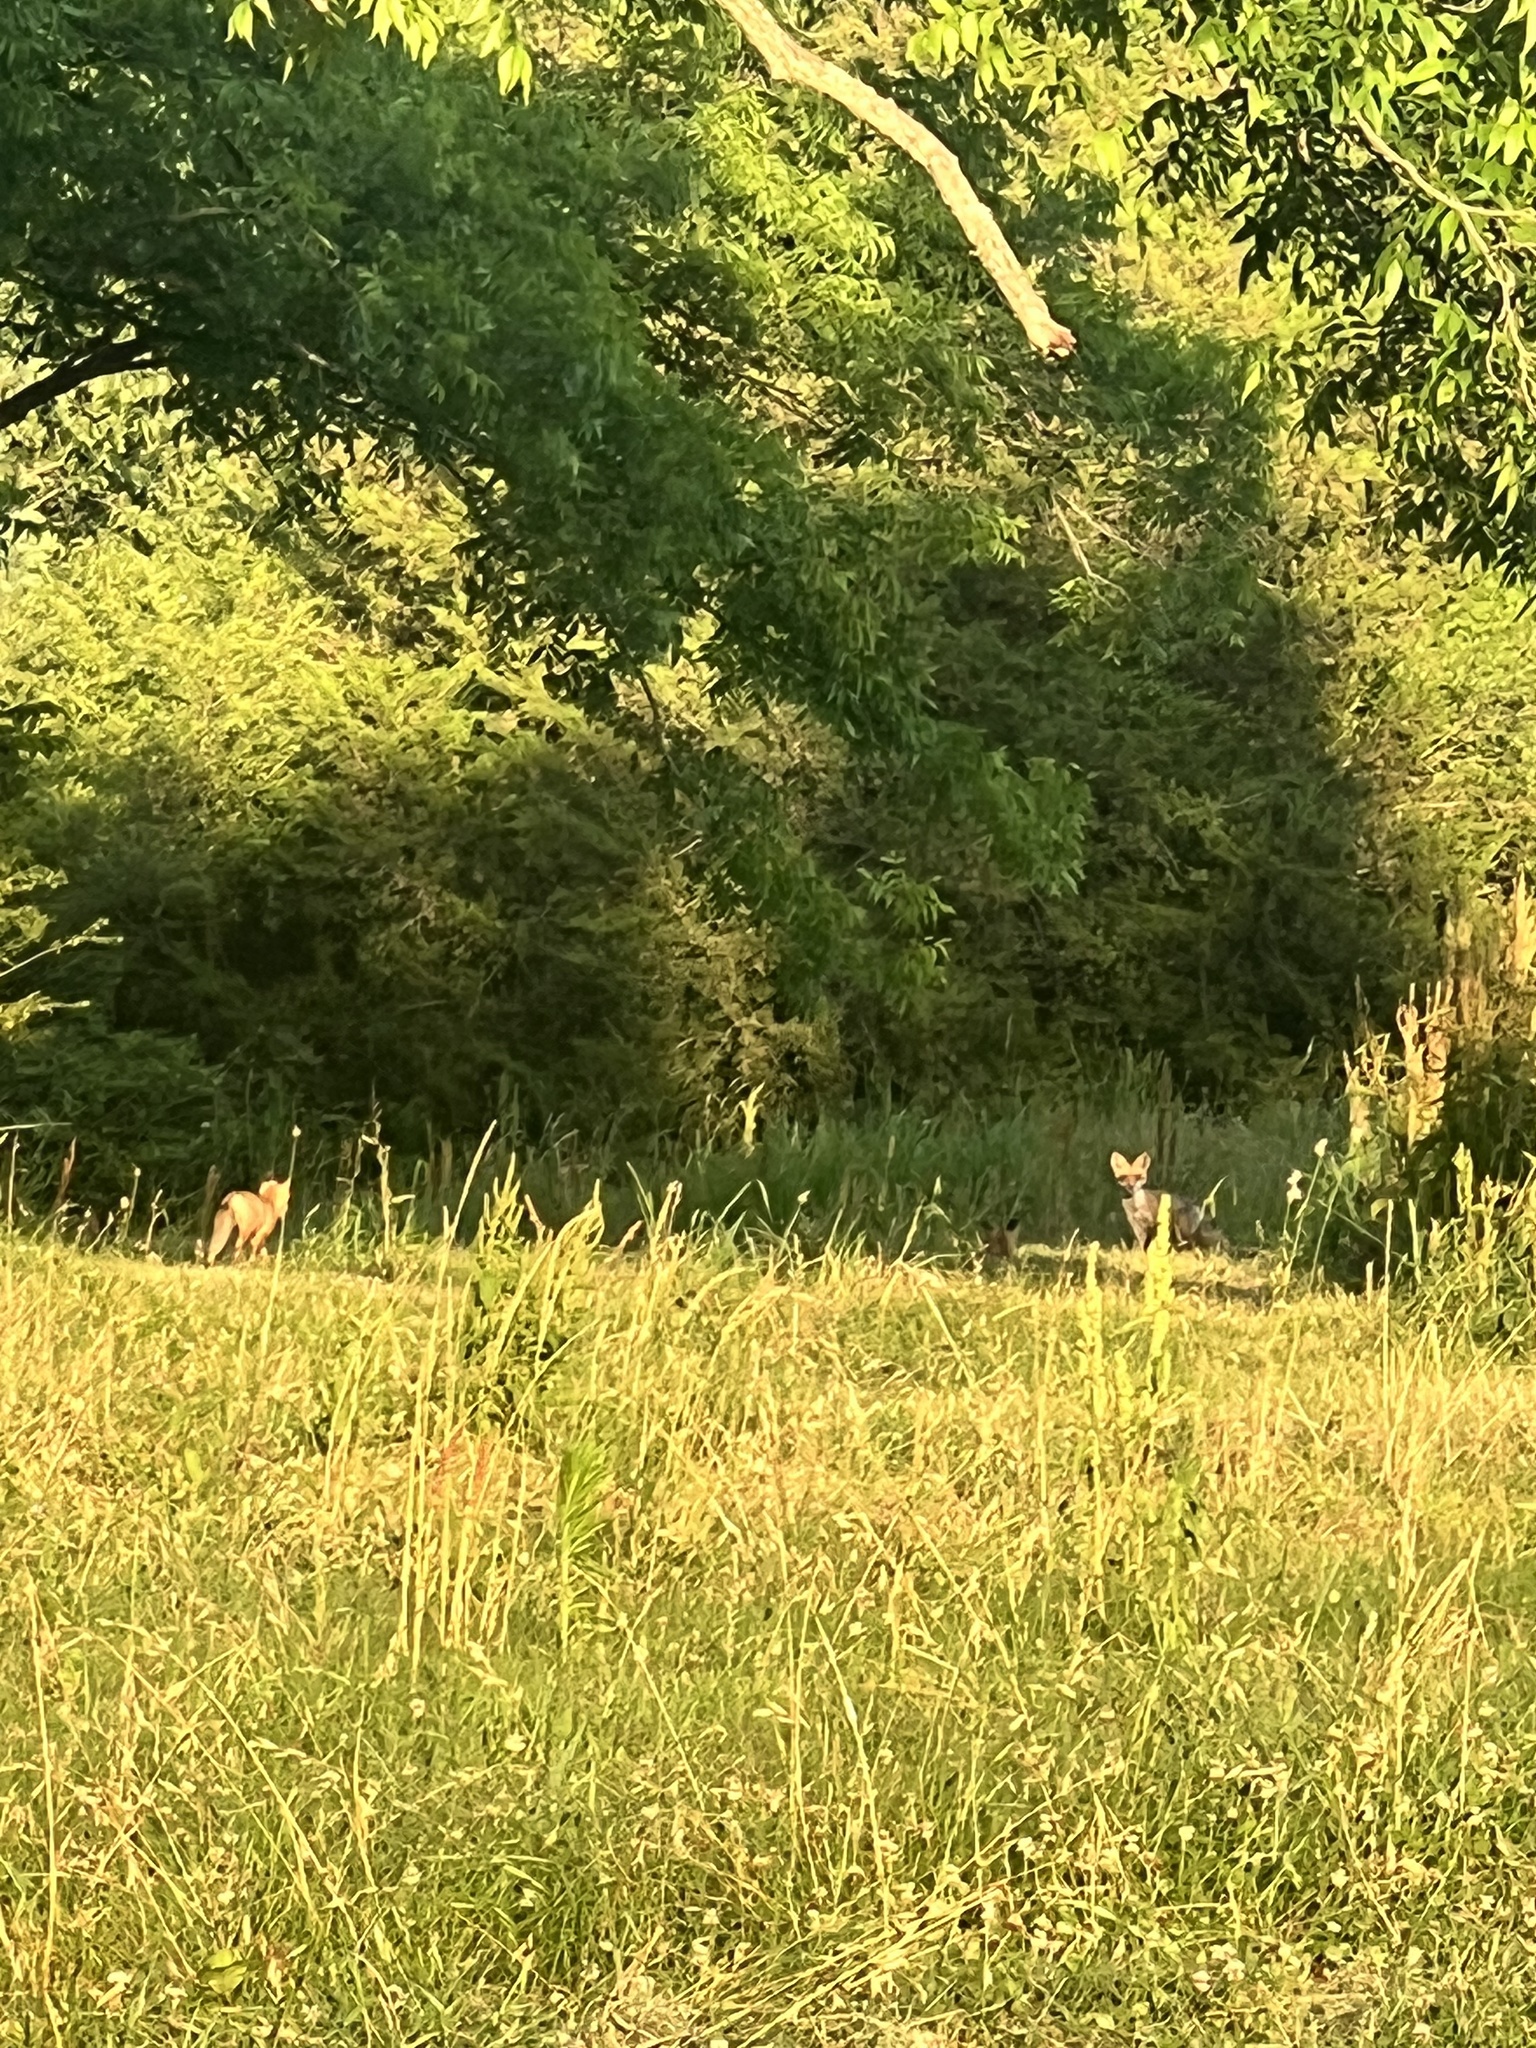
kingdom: Animalia
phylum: Chordata
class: Mammalia
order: Carnivora
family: Canidae
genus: Vulpes
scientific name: Vulpes vulpes
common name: Red fox
